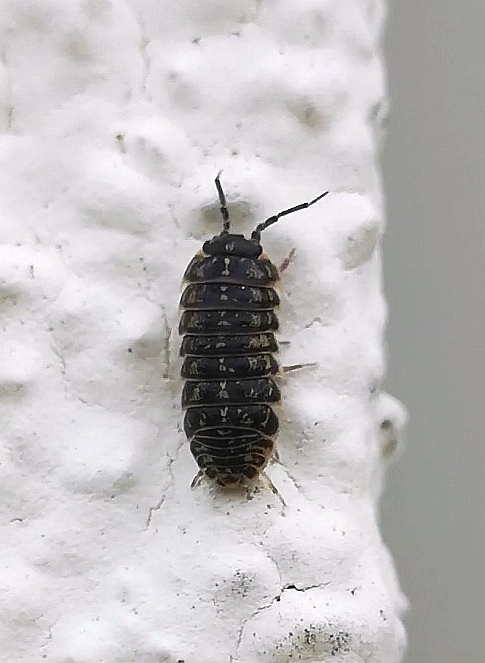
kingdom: Animalia
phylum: Arthropoda
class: Malacostraca
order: Isopoda
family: Armadillidiidae
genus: Armadillidium
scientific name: Armadillidium versicolor
